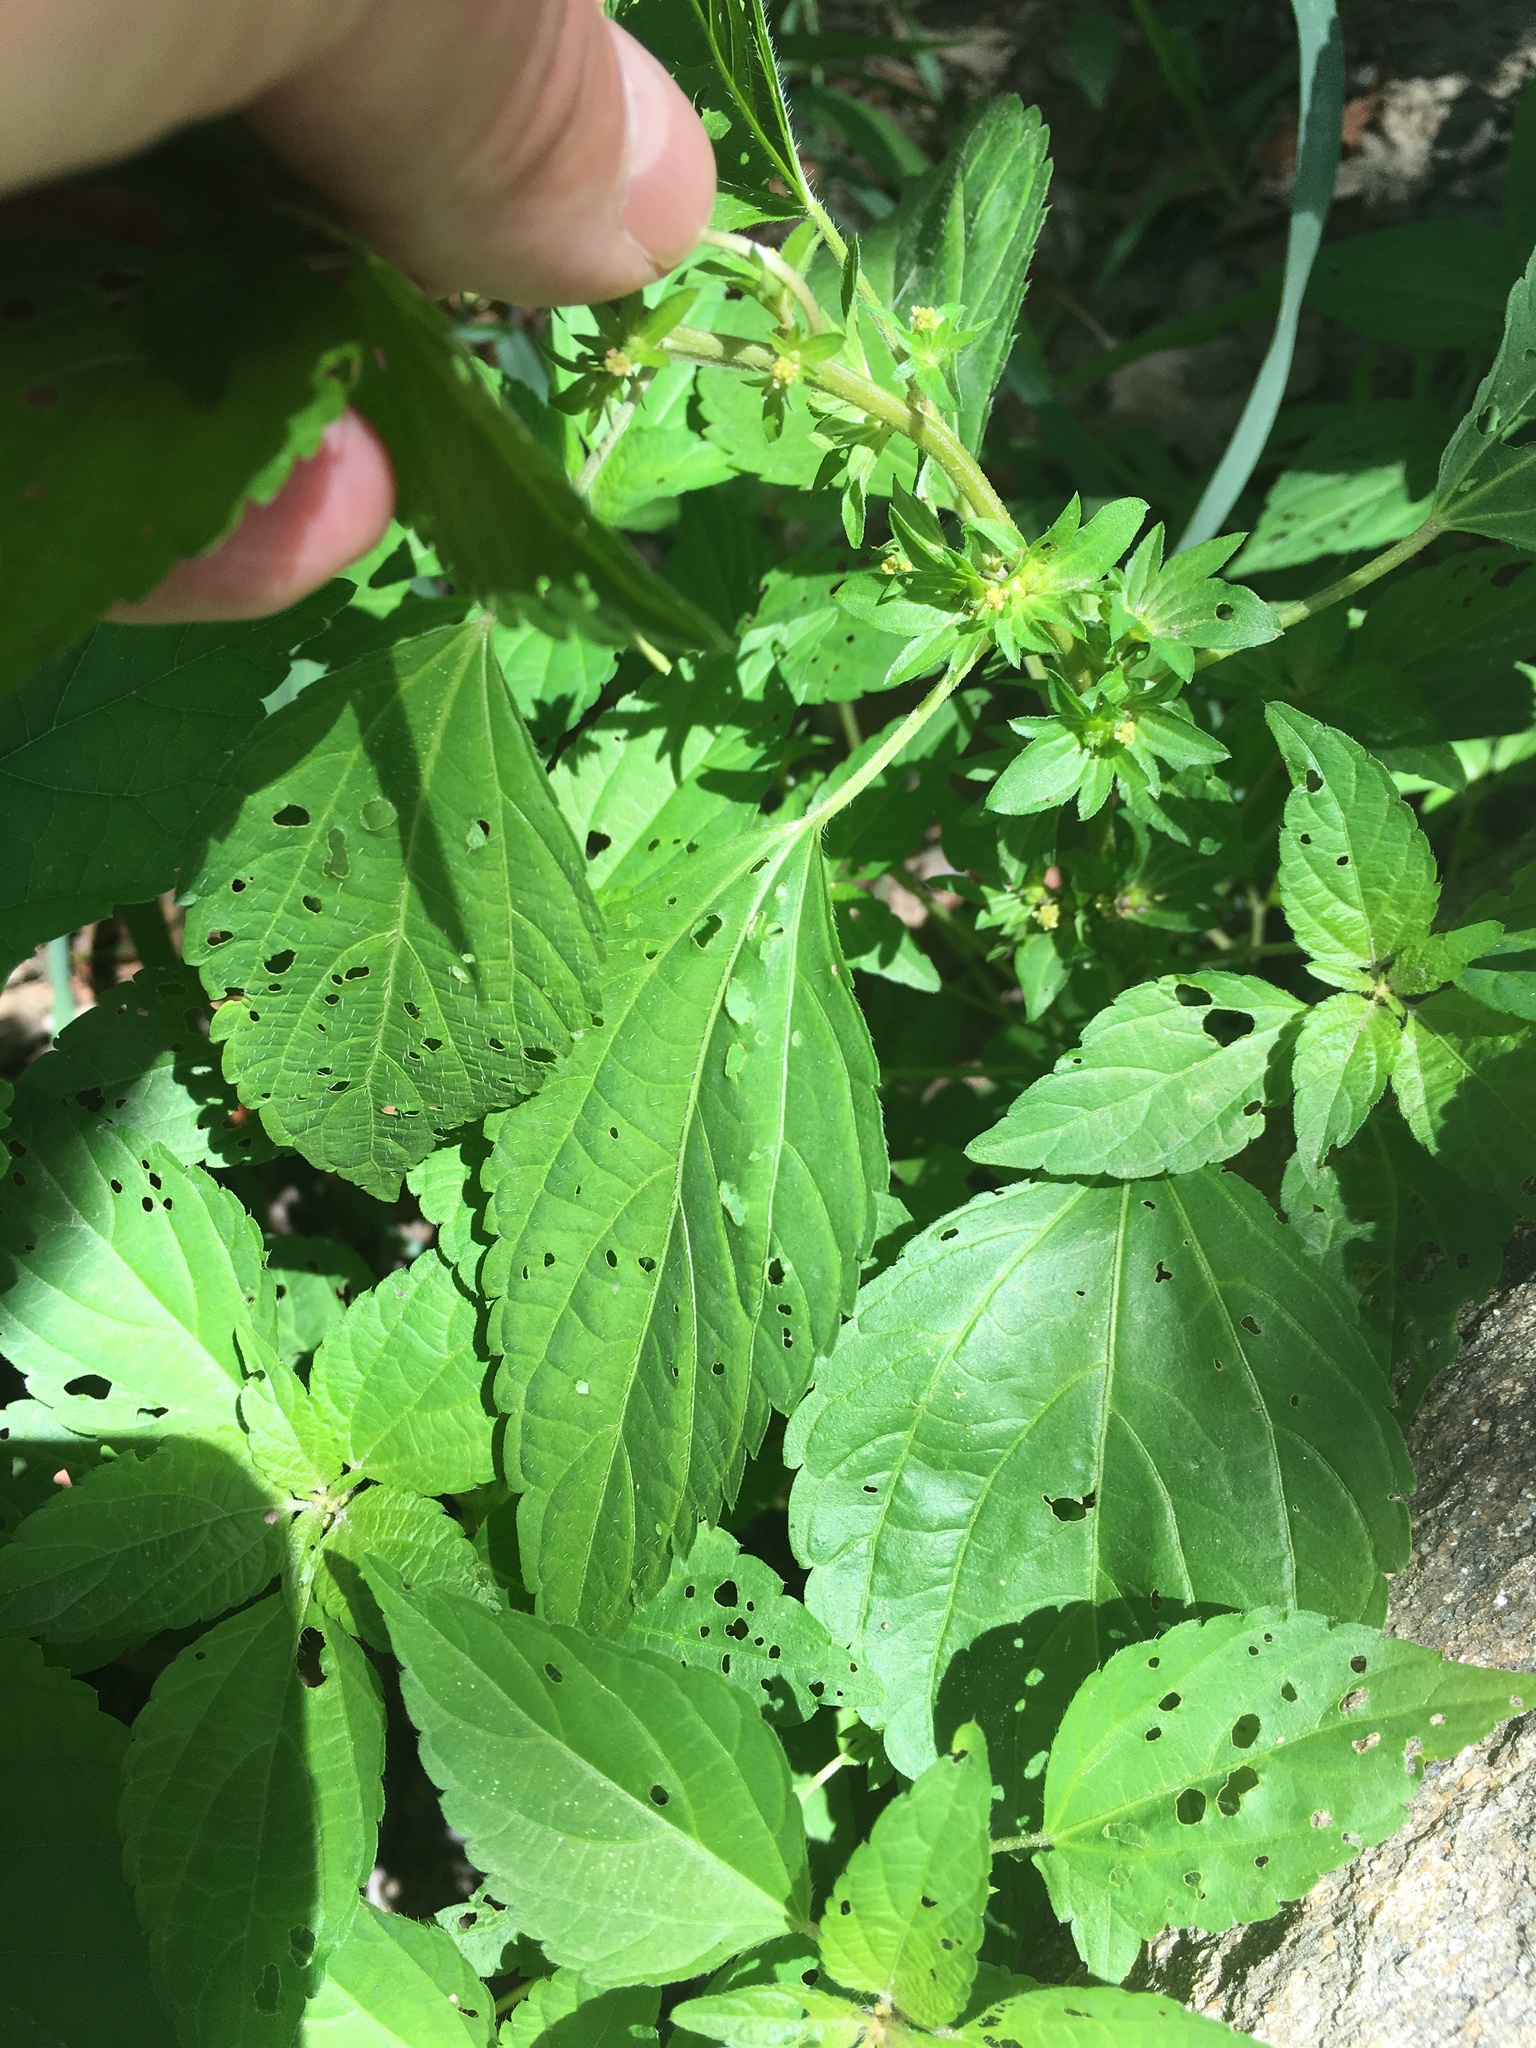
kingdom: Plantae
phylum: Tracheophyta
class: Magnoliopsida
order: Malpighiales
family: Euphorbiaceae
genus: Acalypha
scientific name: Acalypha rhomboidea
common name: Rhombic copperleaf
